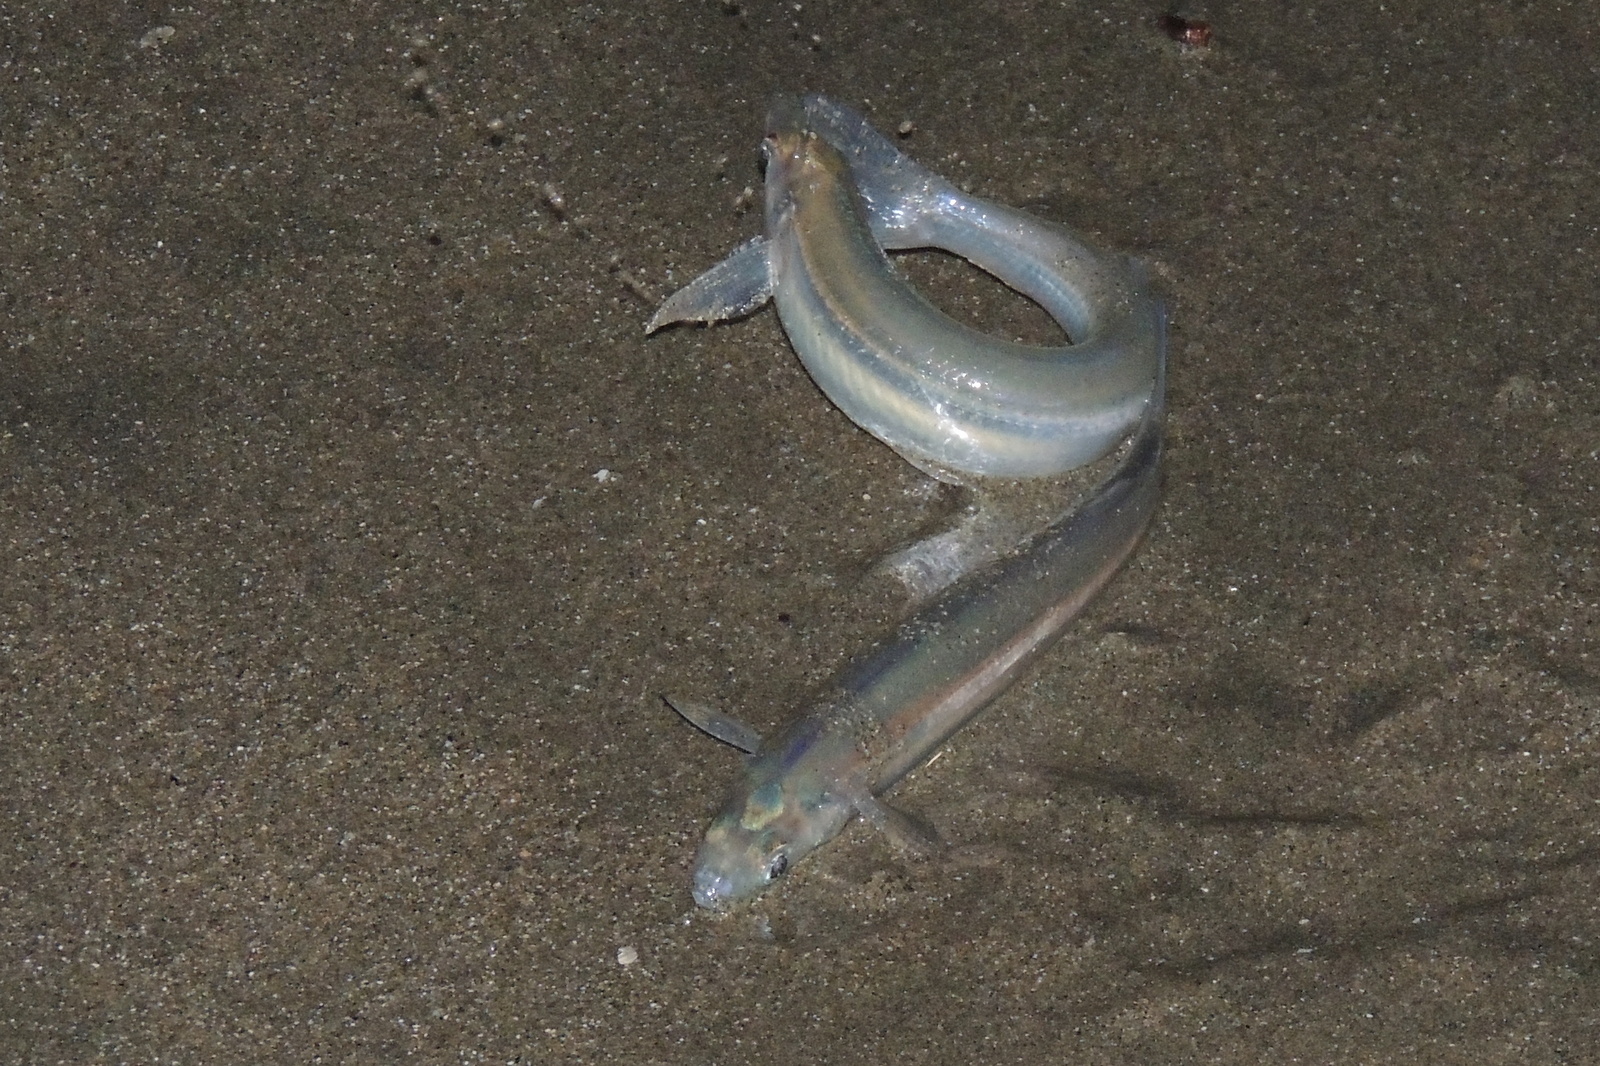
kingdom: Animalia
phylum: Chordata
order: Atheriniformes
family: Atherinopsidae
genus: Leuresthes
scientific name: Leuresthes tenuis
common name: California grunion
